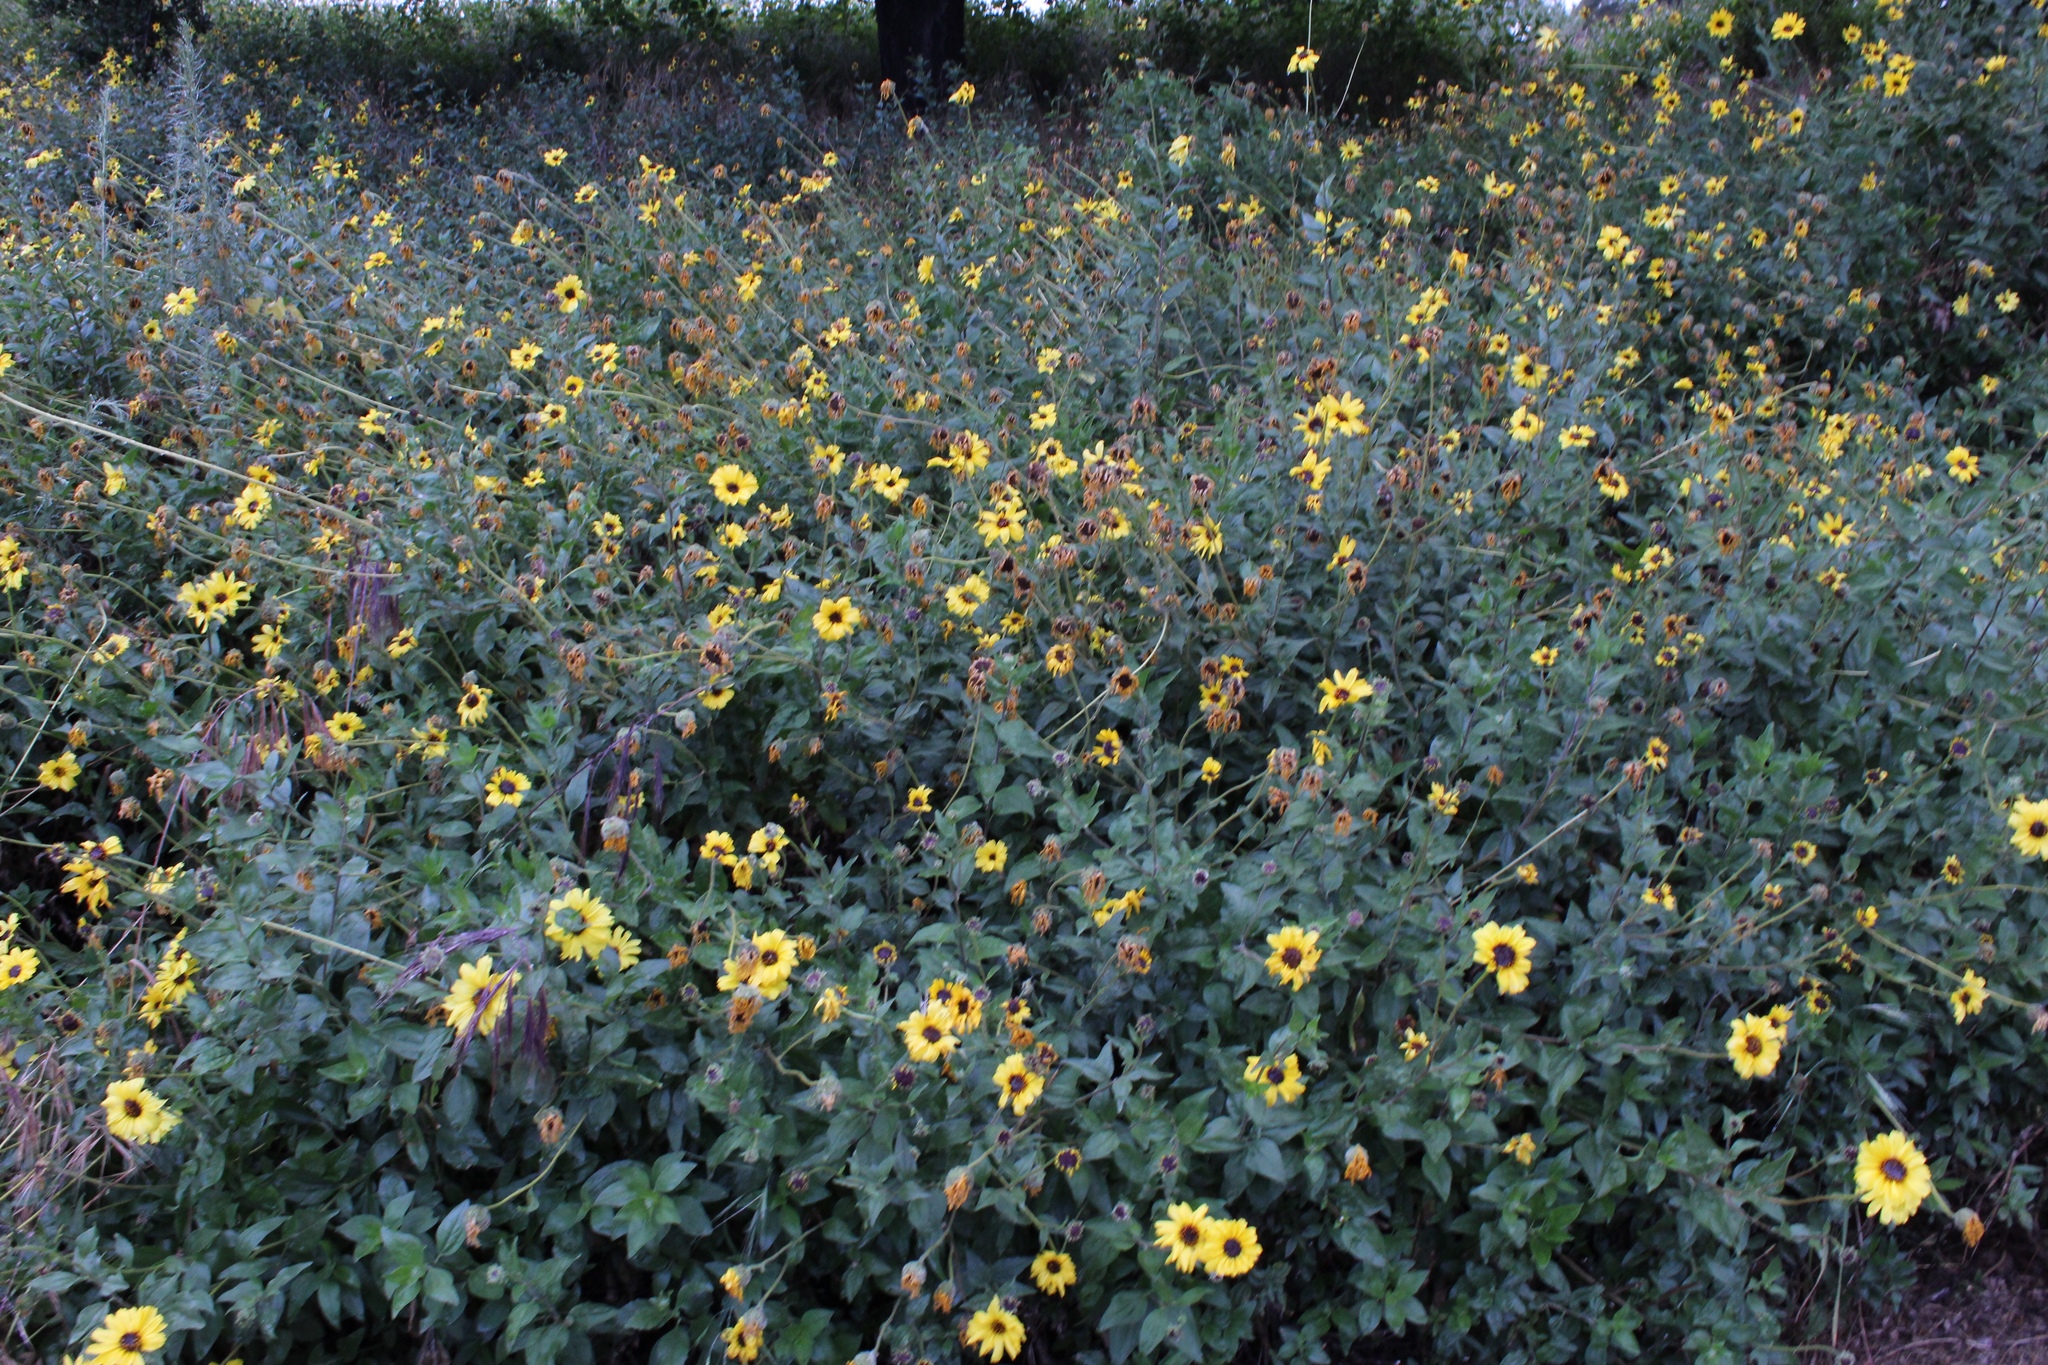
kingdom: Plantae
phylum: Tracheophyta
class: Magnoliopsida
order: Asterales
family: Asteraceae
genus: Encelia
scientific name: Encelia californica
